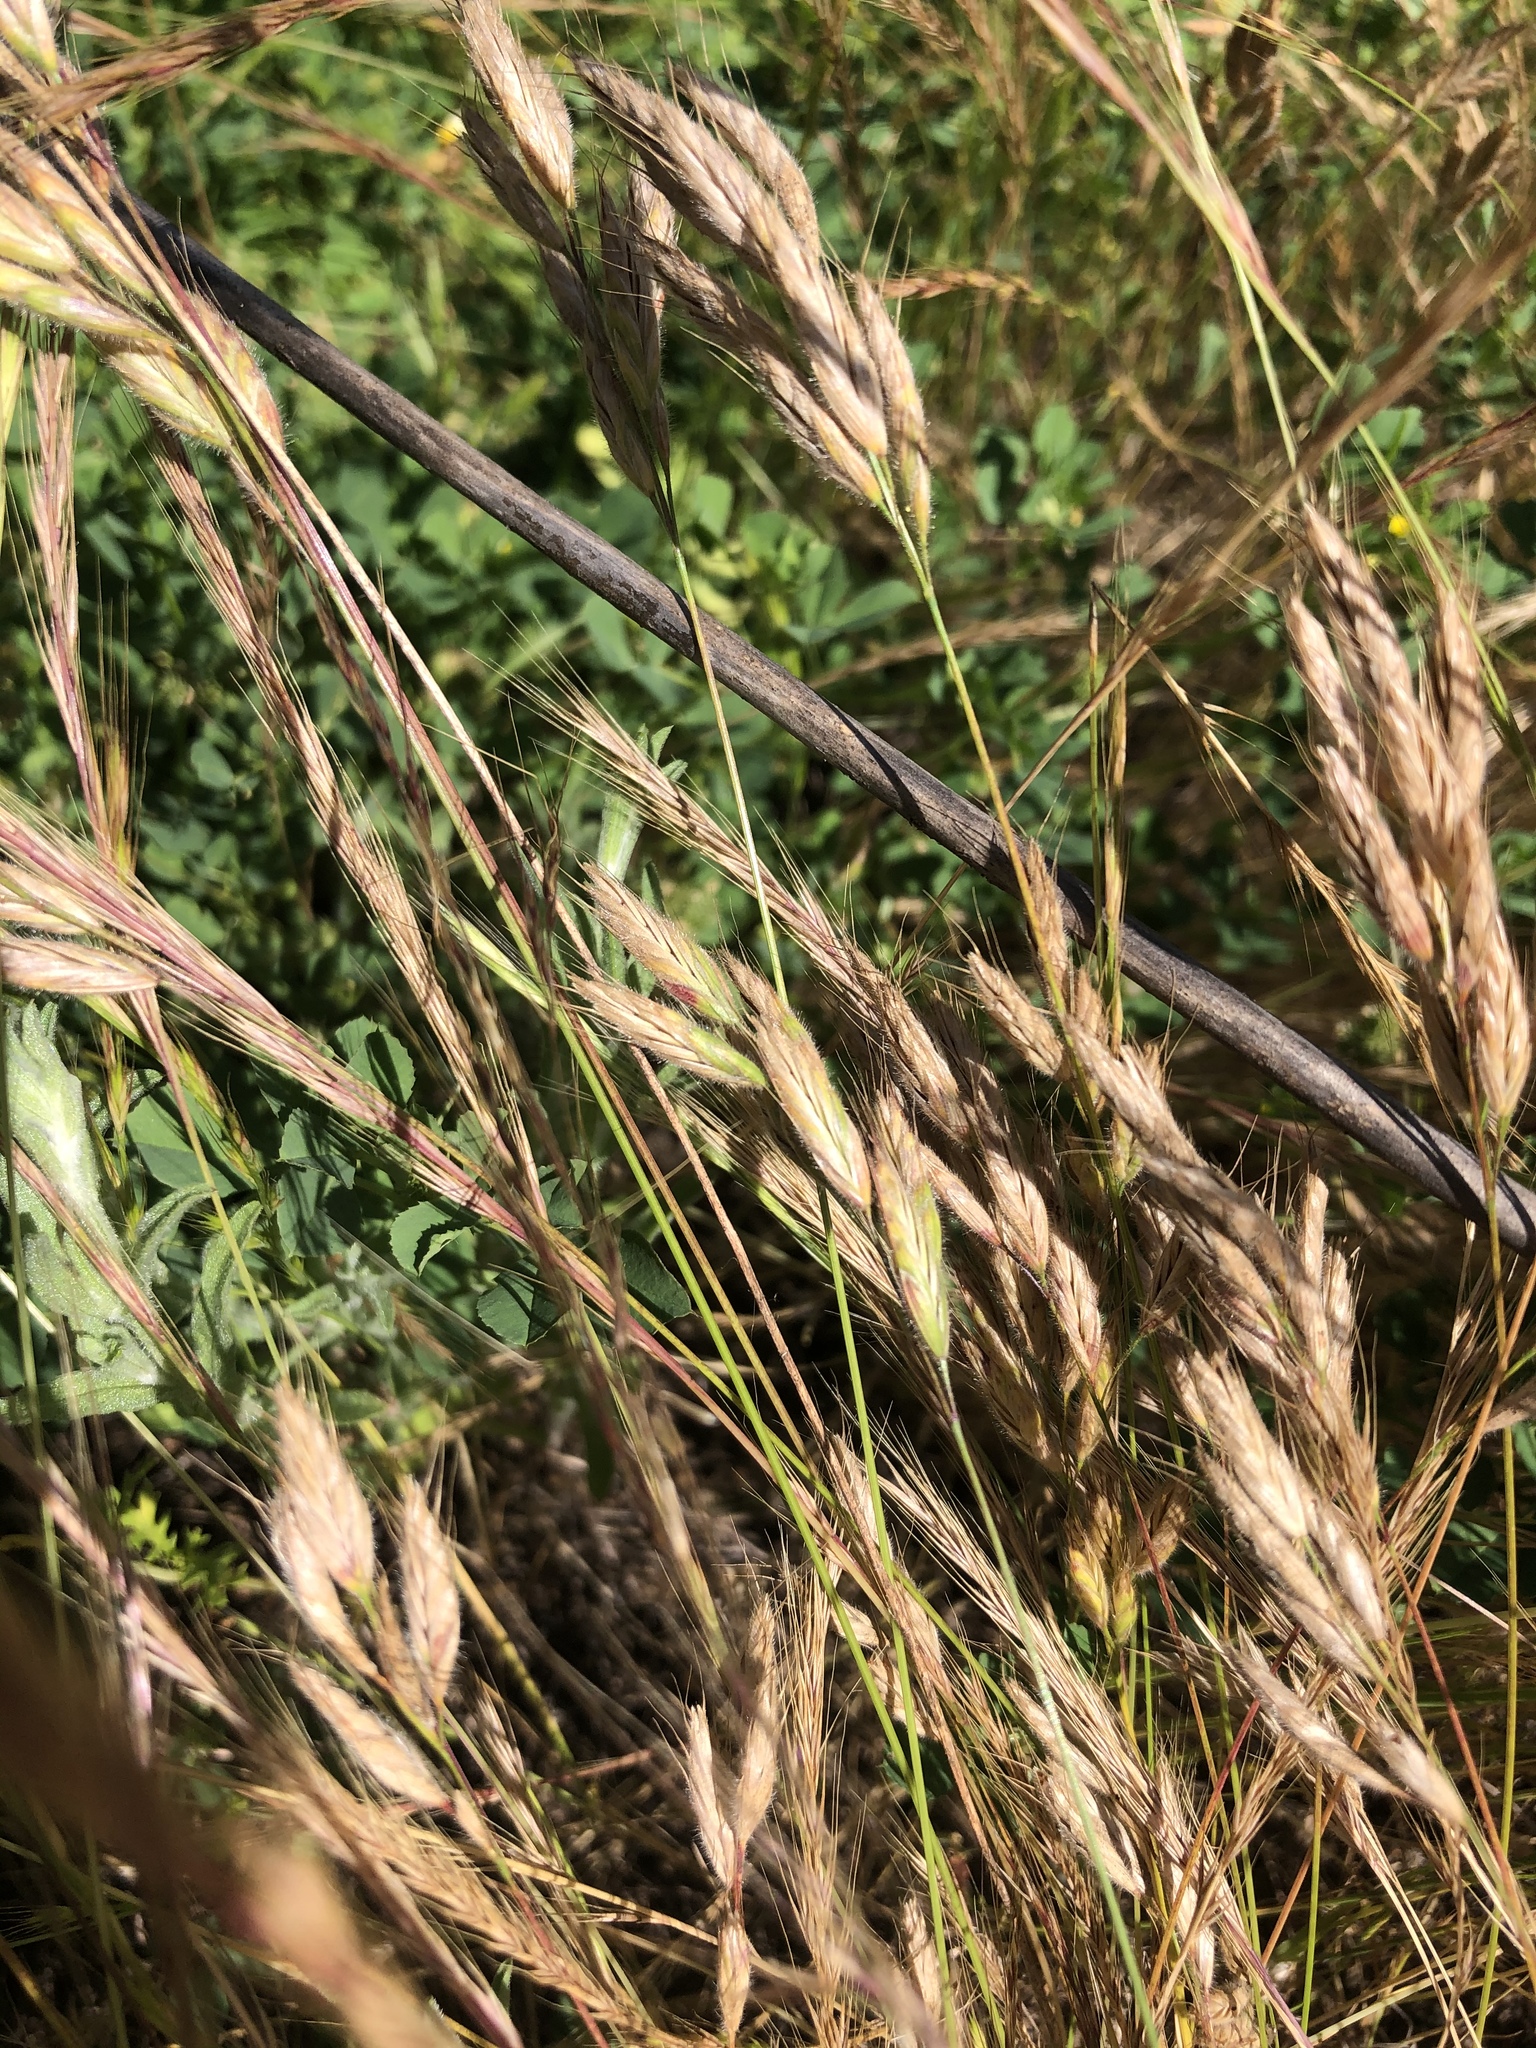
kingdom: Plantae
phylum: Tracheophyta
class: Liliopsida
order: Poales
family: Poaceae
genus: Bromus
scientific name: Bromus hordeaceus
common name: Soft brome
